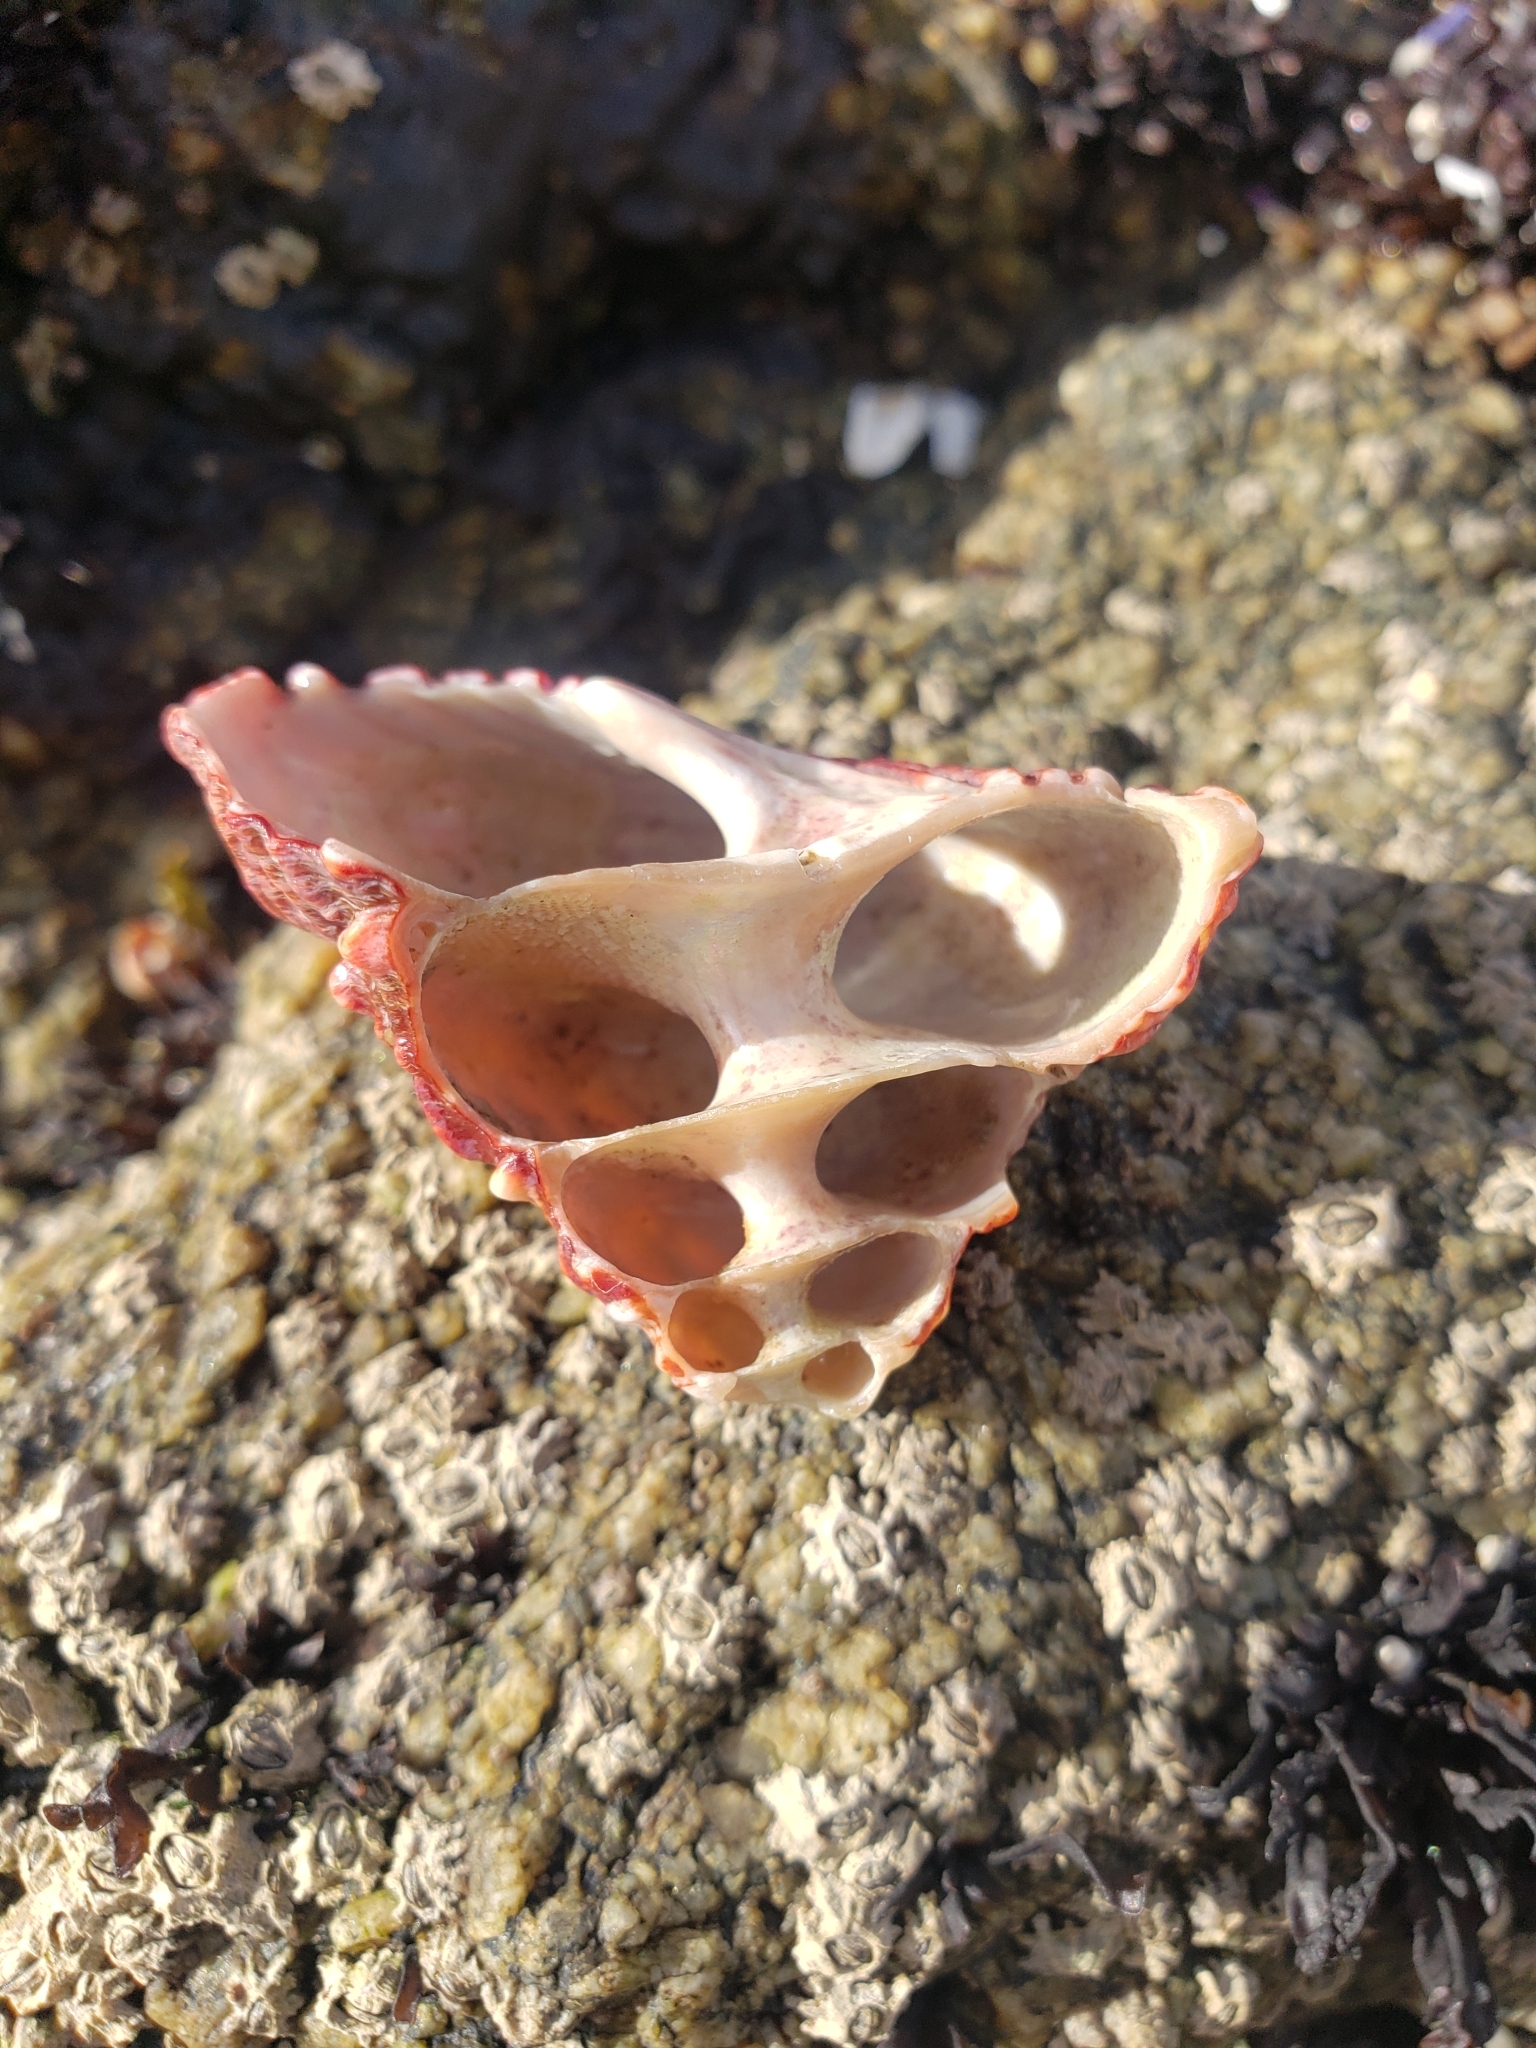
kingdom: Animalia
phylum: Mollusca
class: Gastropoda
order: Trochida
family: Turbinidae
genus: Pomaulax
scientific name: Pomaulax gibberosus
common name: Red turban
